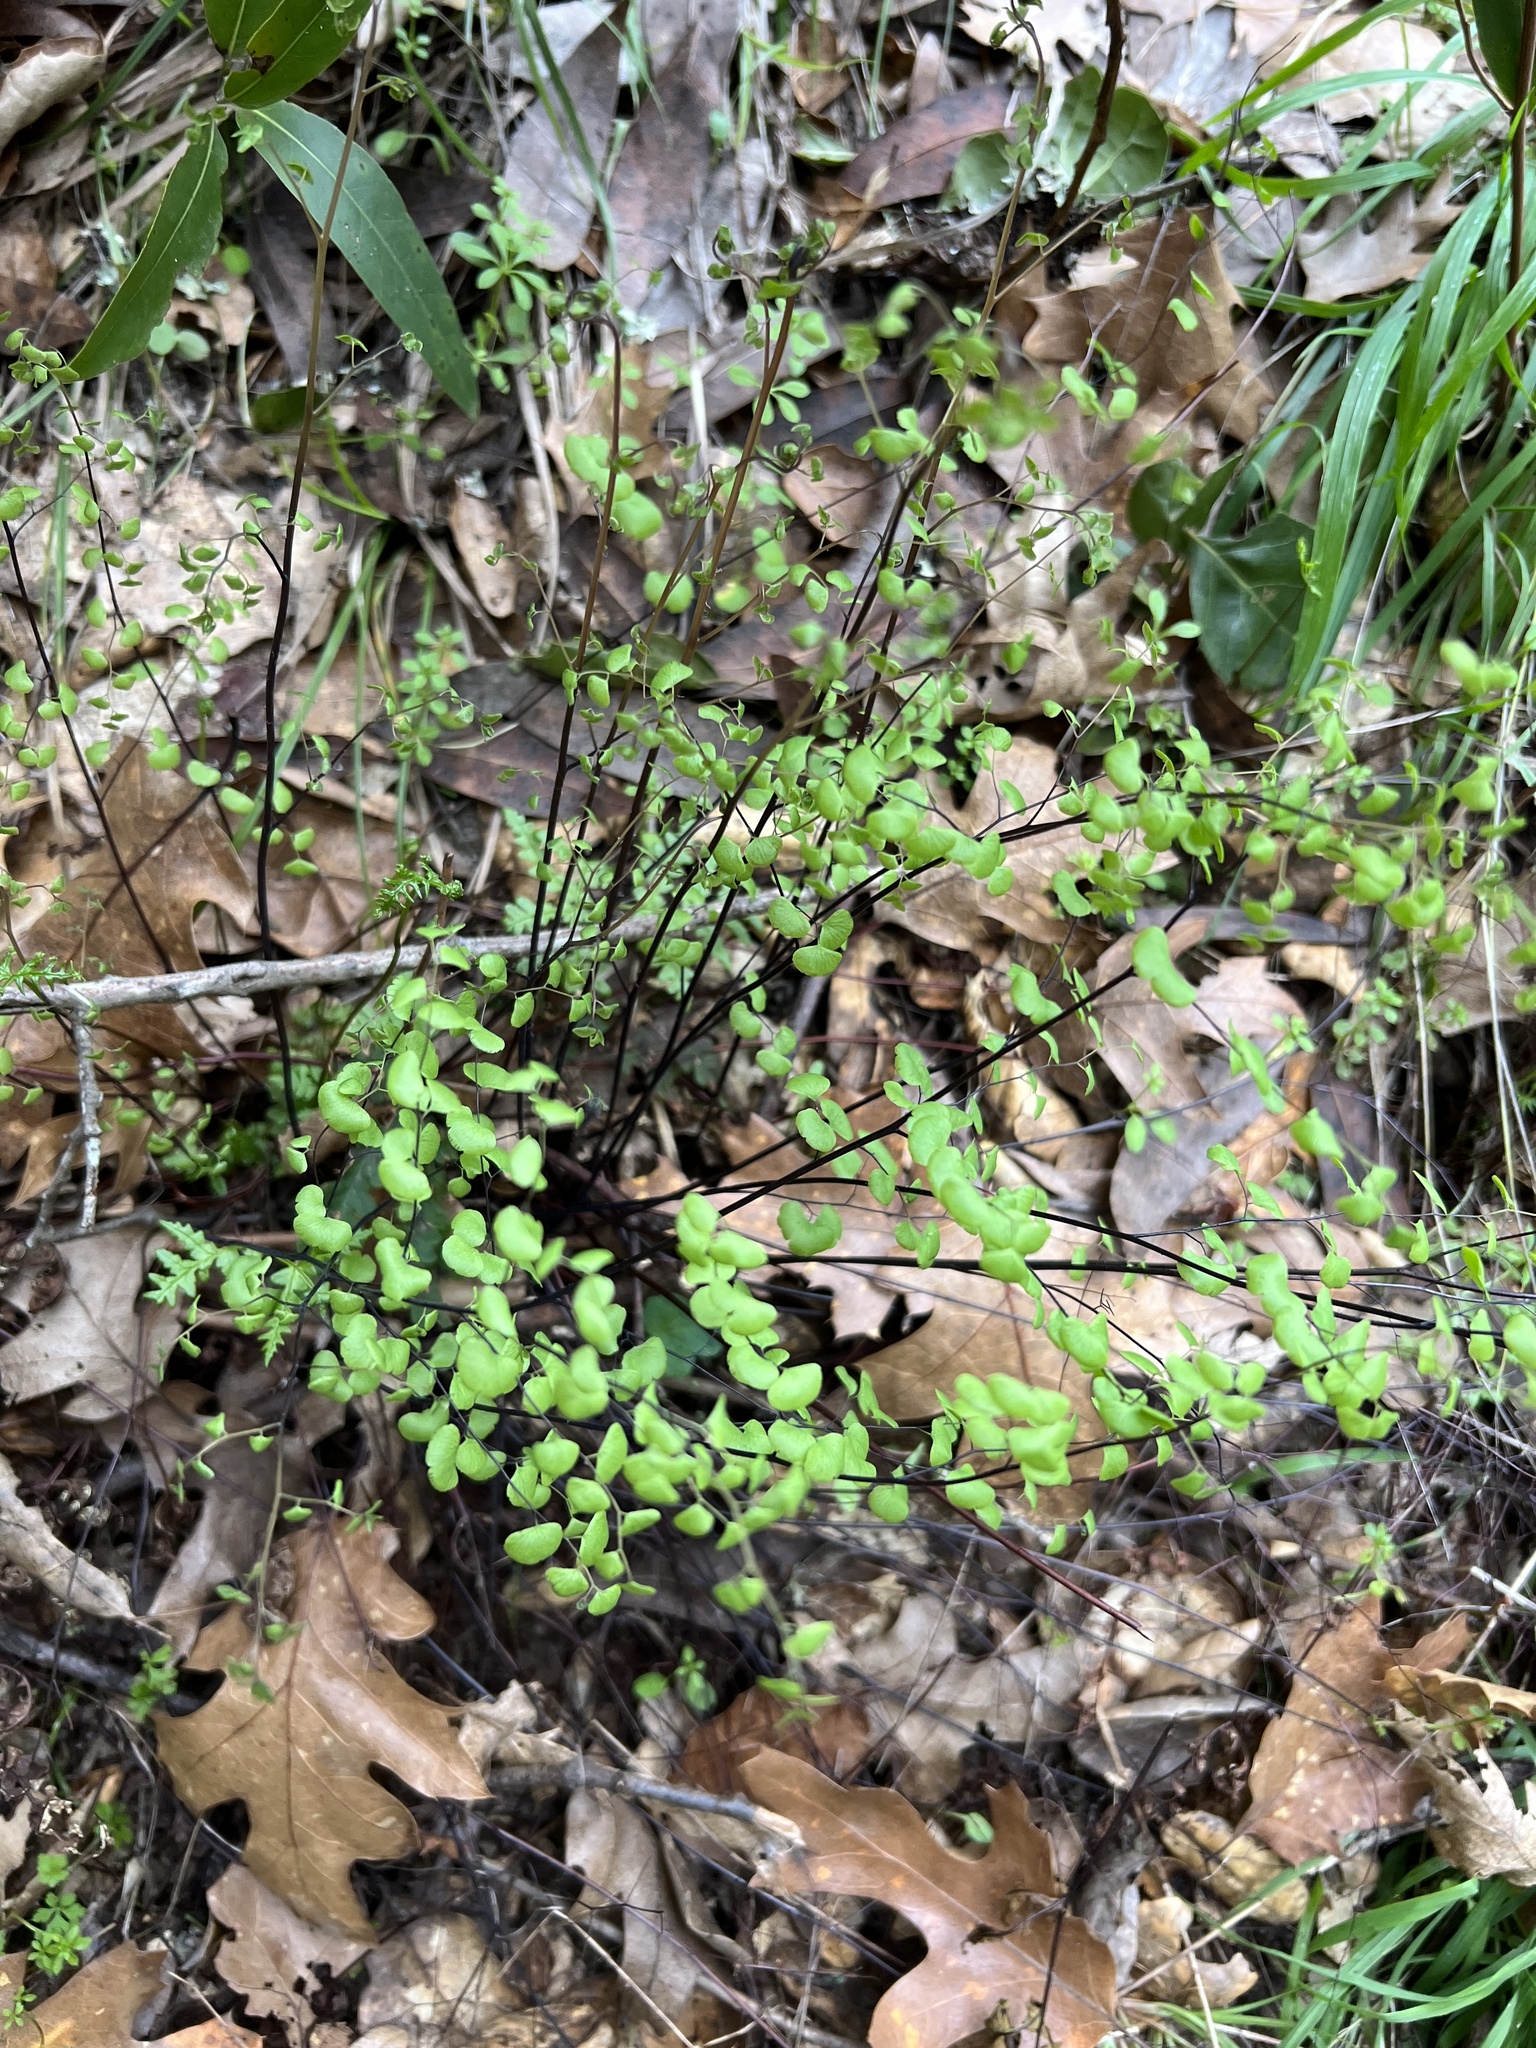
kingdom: Plantae
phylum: Tracheophyta
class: Polypodiopsida
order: Polypodiales
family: Pteridaceae
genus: Adiantum
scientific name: Adiantum jordanii
